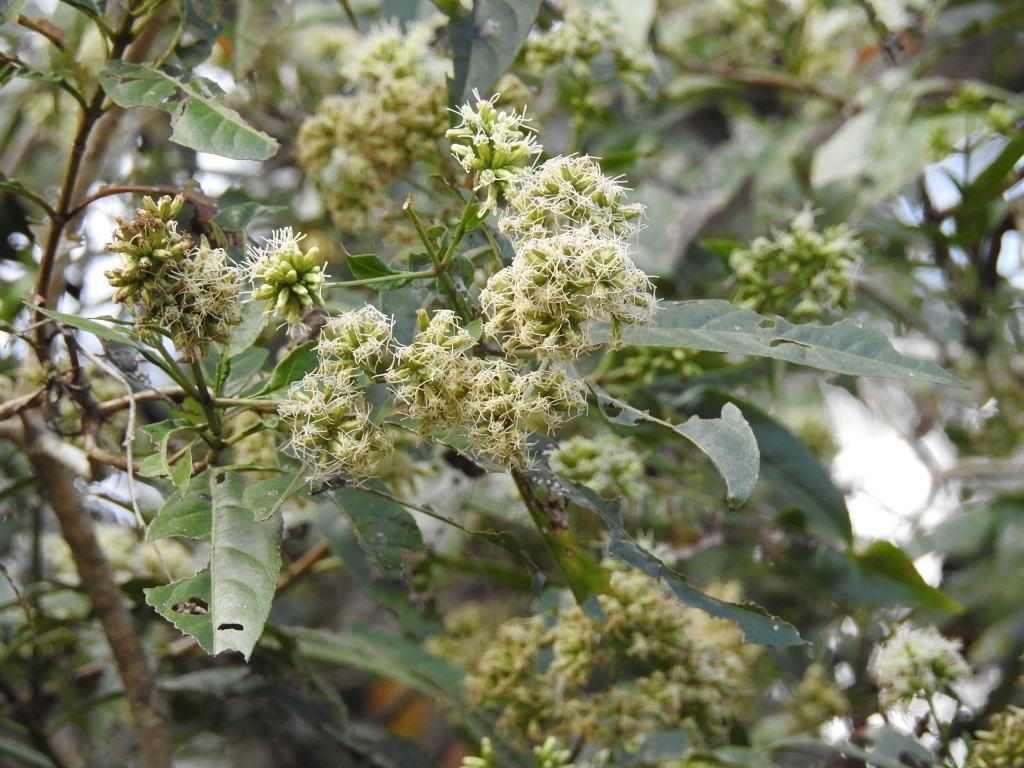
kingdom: Plantae
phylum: Tracheophyta
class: Magnoliopsida
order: Asterales
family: Asteraceae
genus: Critonia
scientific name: Critonia hospitalis
